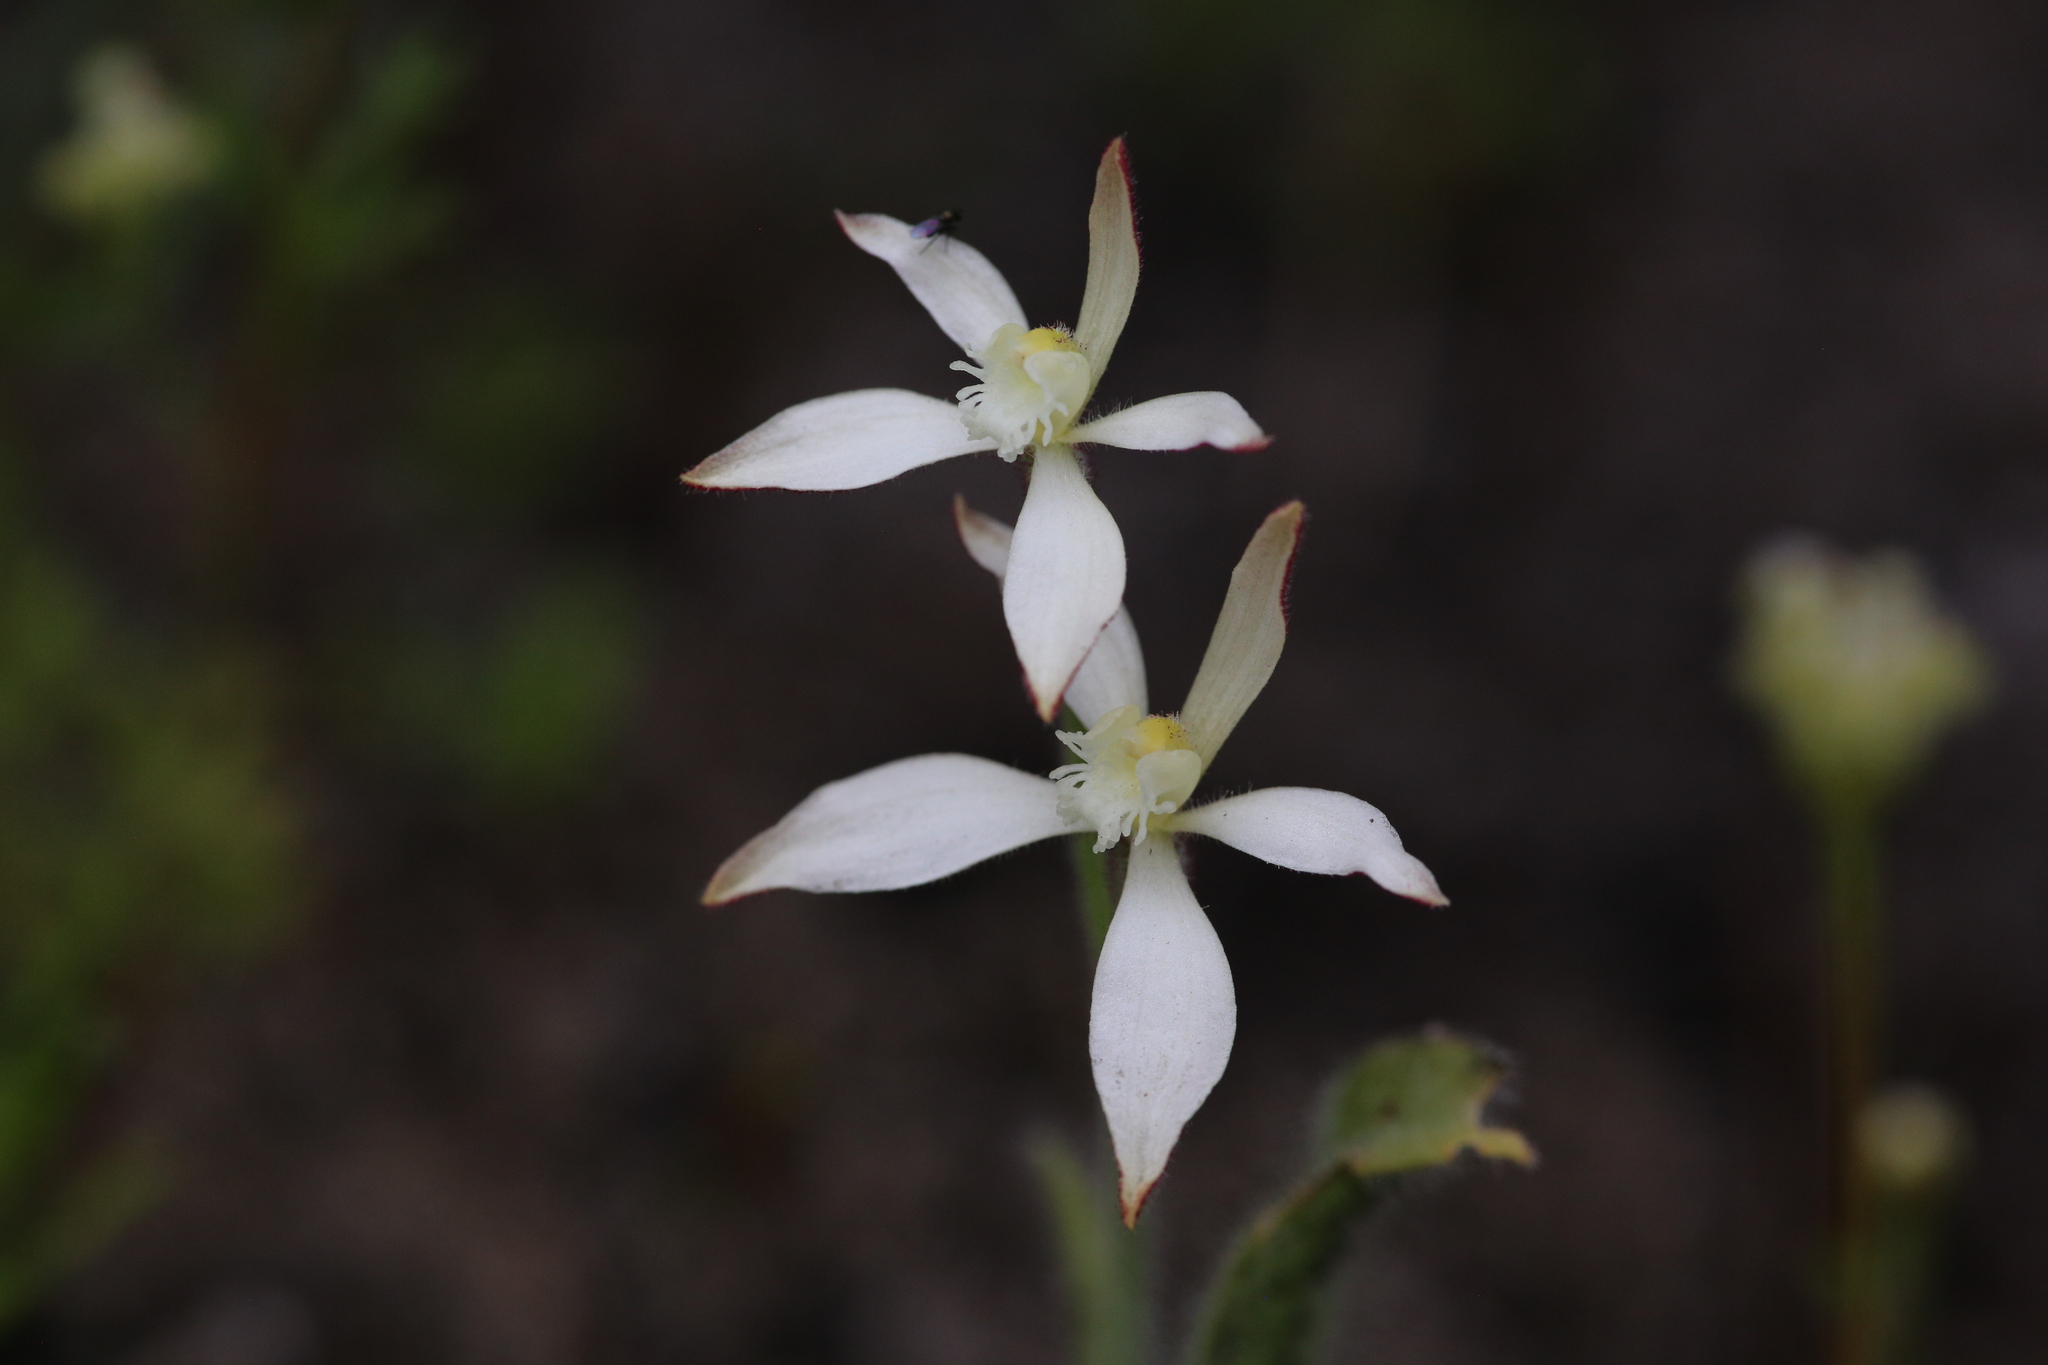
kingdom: Plantae
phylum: Tracheophyta
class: Liliopsida
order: Asparagales
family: Orchidaceae
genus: Caladenia
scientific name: Caladenia marginata
